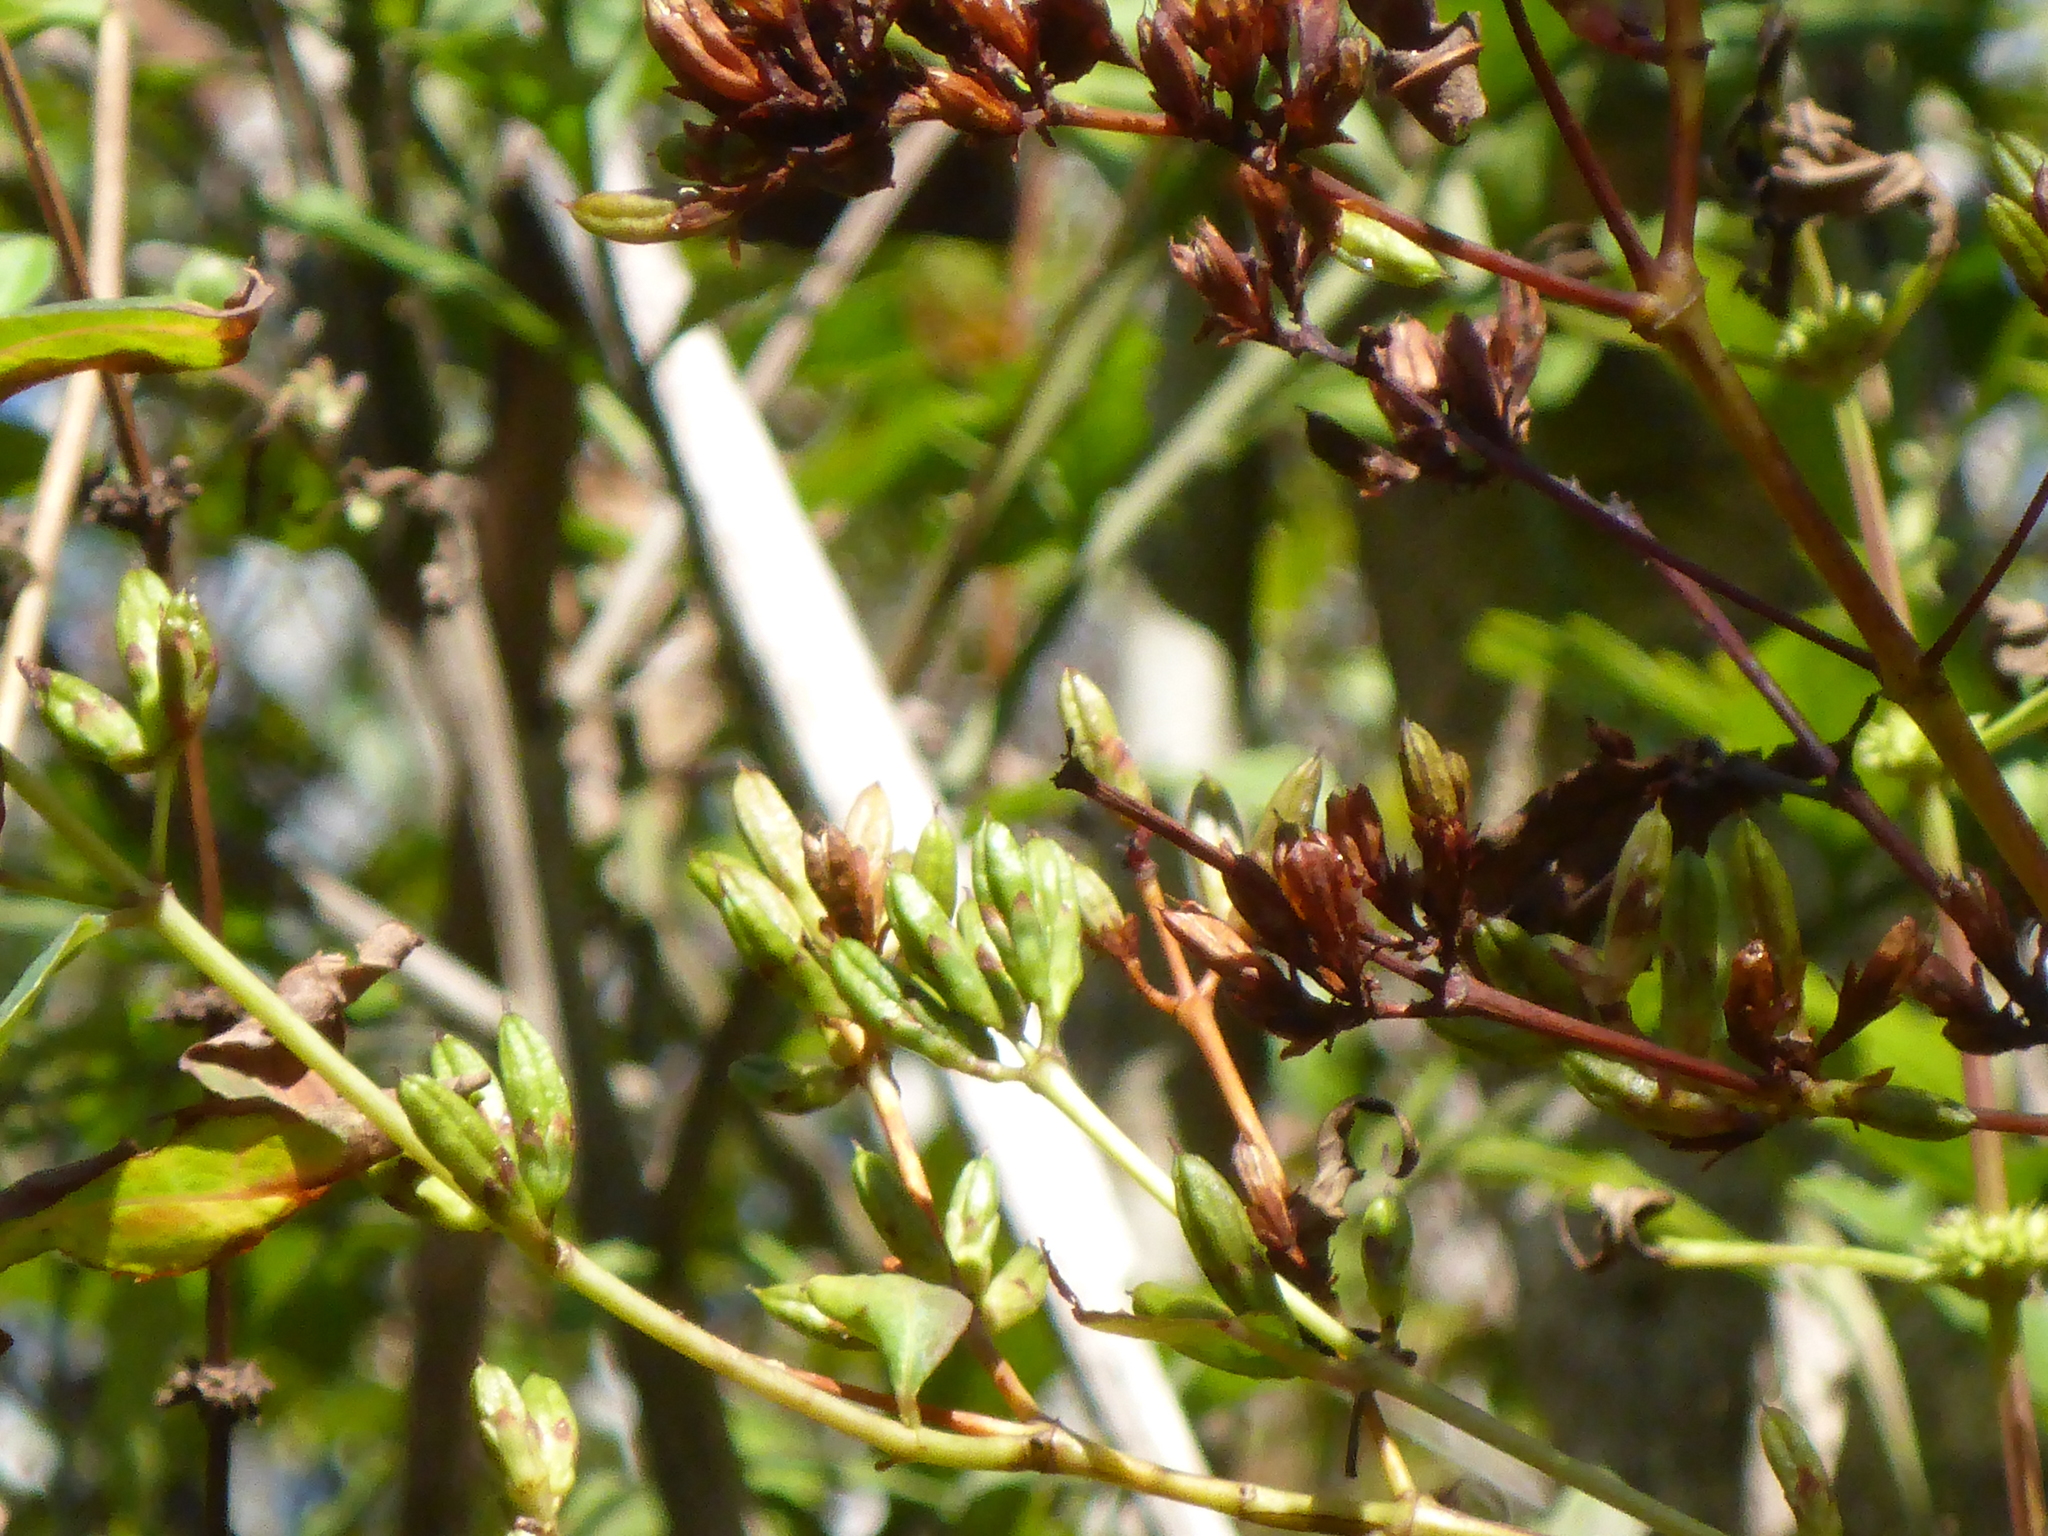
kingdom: Plantae
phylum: Tracheophyta
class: Magnoliopsida
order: Malpighiales
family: Hypericaceae
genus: Triadenum
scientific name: Triadenum virginicum
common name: Marsh st. john's-wort
